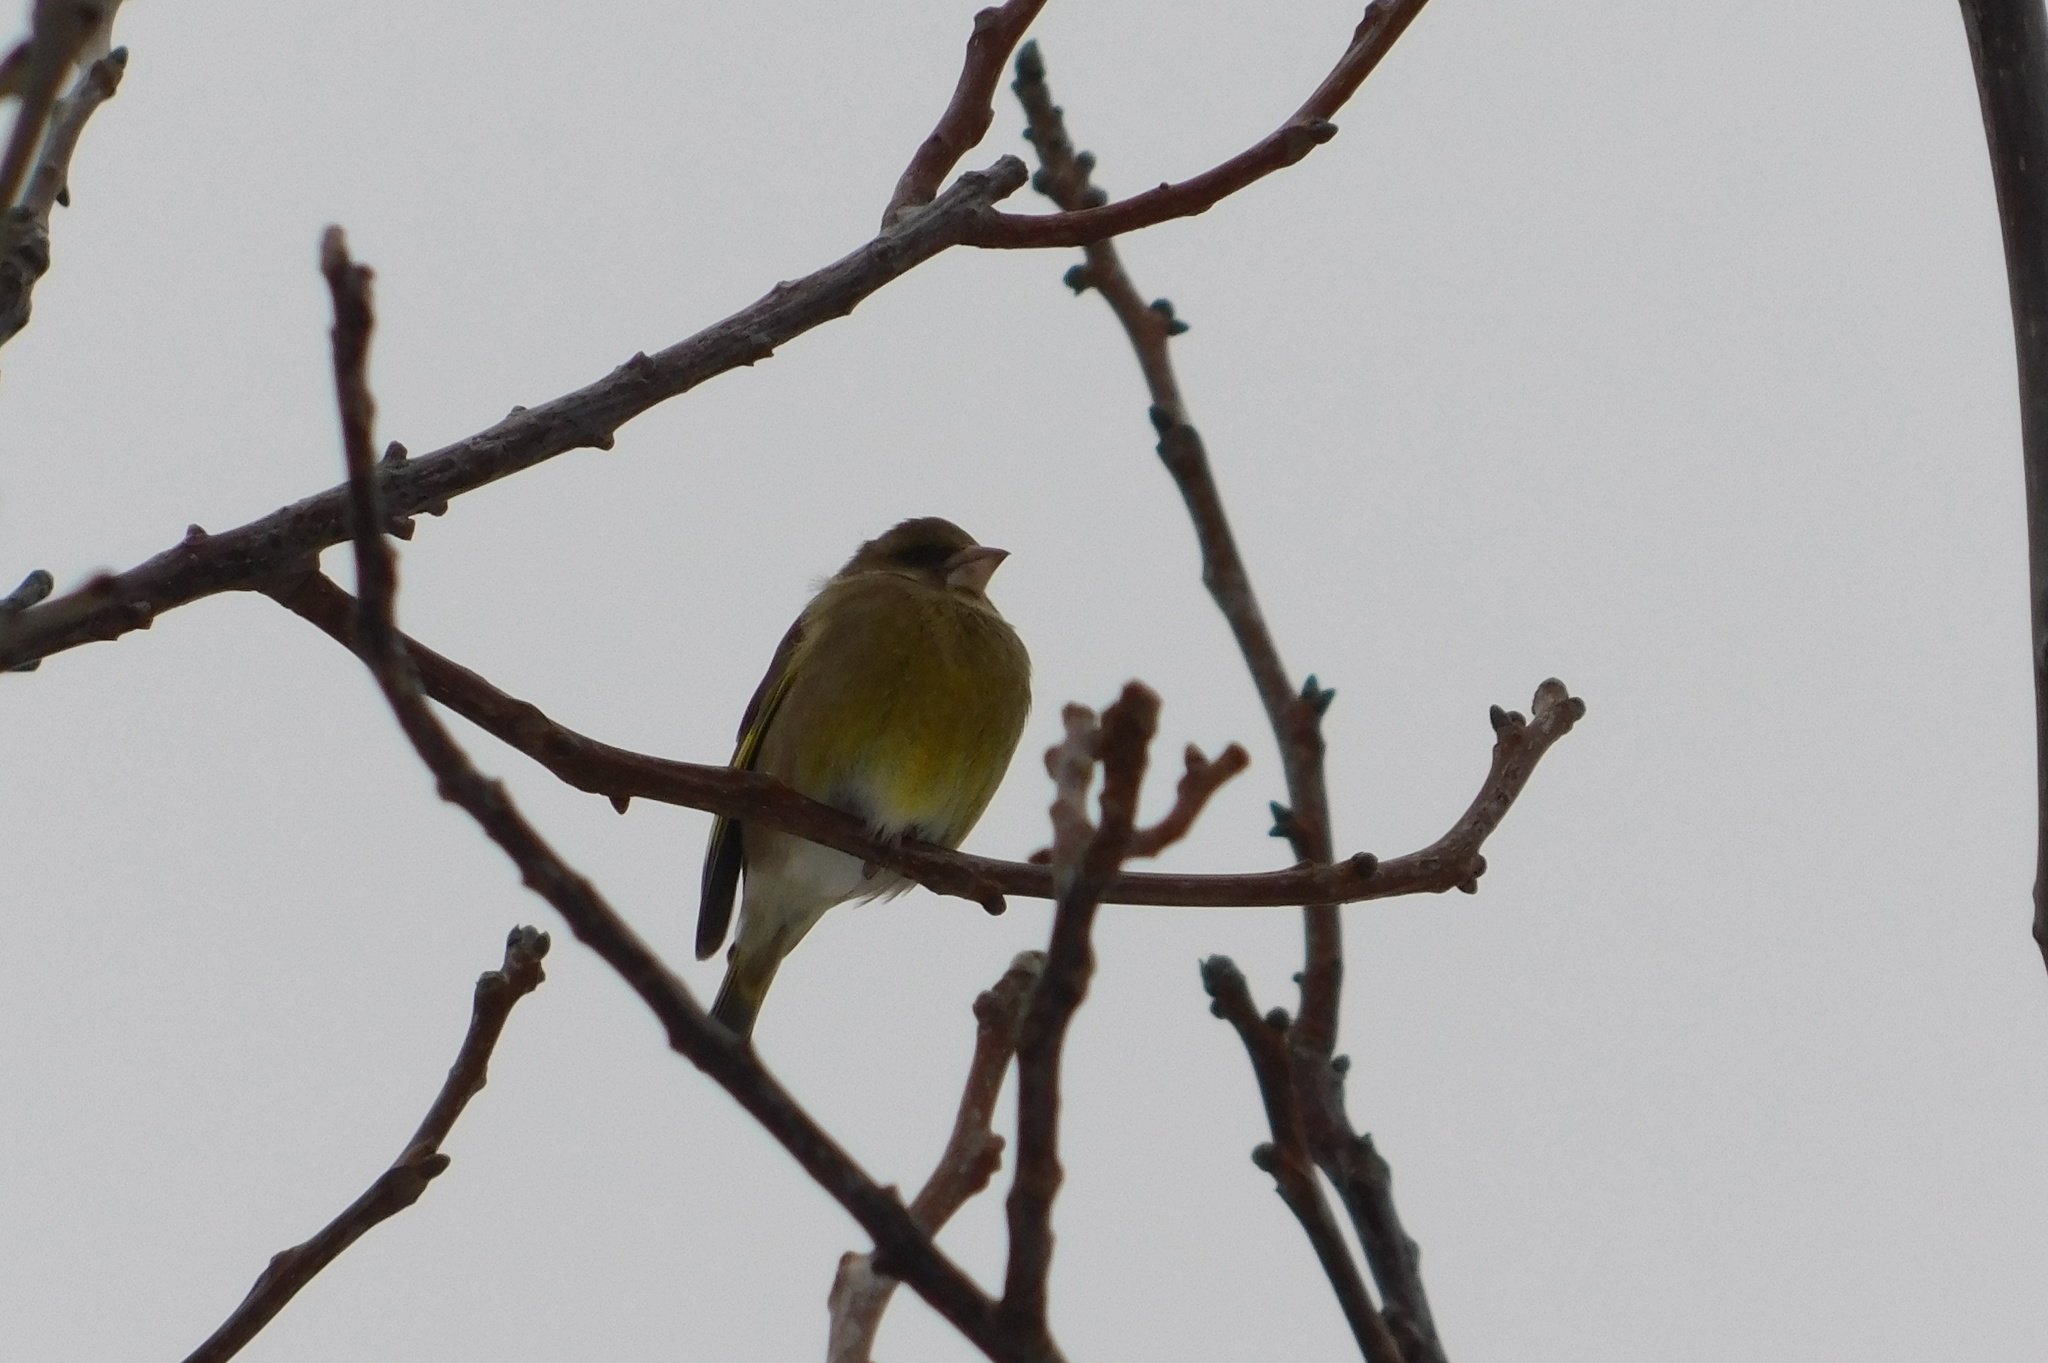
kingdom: Plantae
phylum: Tracheophyta
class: Liliopsida
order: Poales
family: Poaceae
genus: Chloris
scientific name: Chloris chloris
